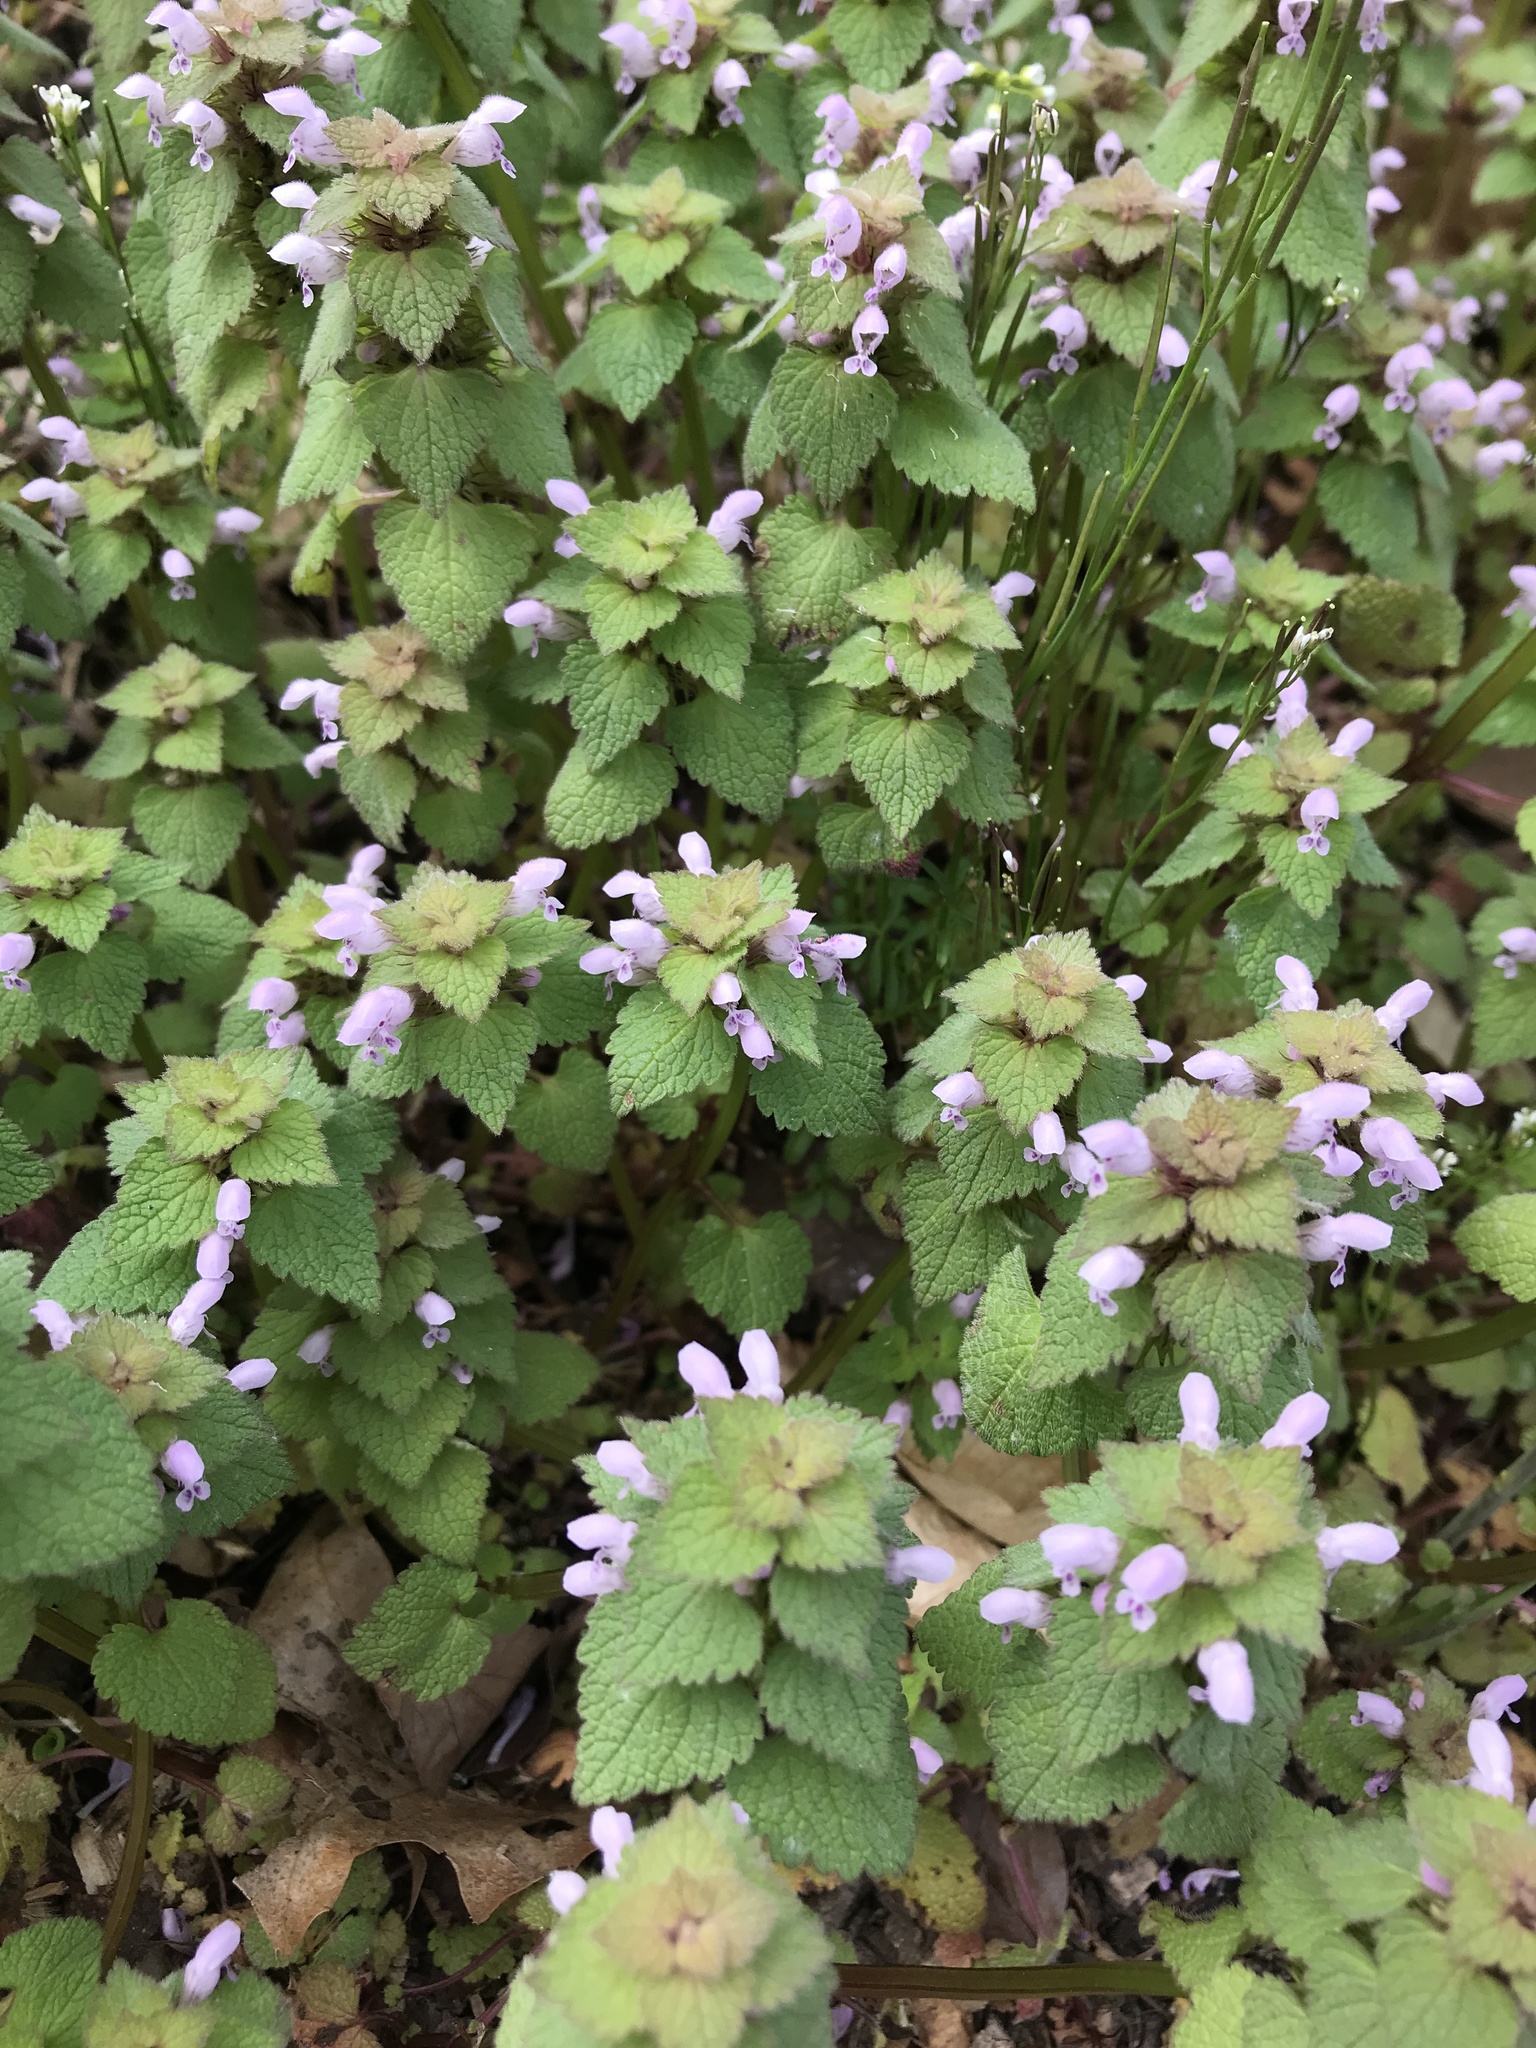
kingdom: Plantae
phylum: Tracheophyta
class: Magnoliopsida
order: Lamiales
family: Lamiaceae
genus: Lamium
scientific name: Lamium purpureum
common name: Red dead-nettle
